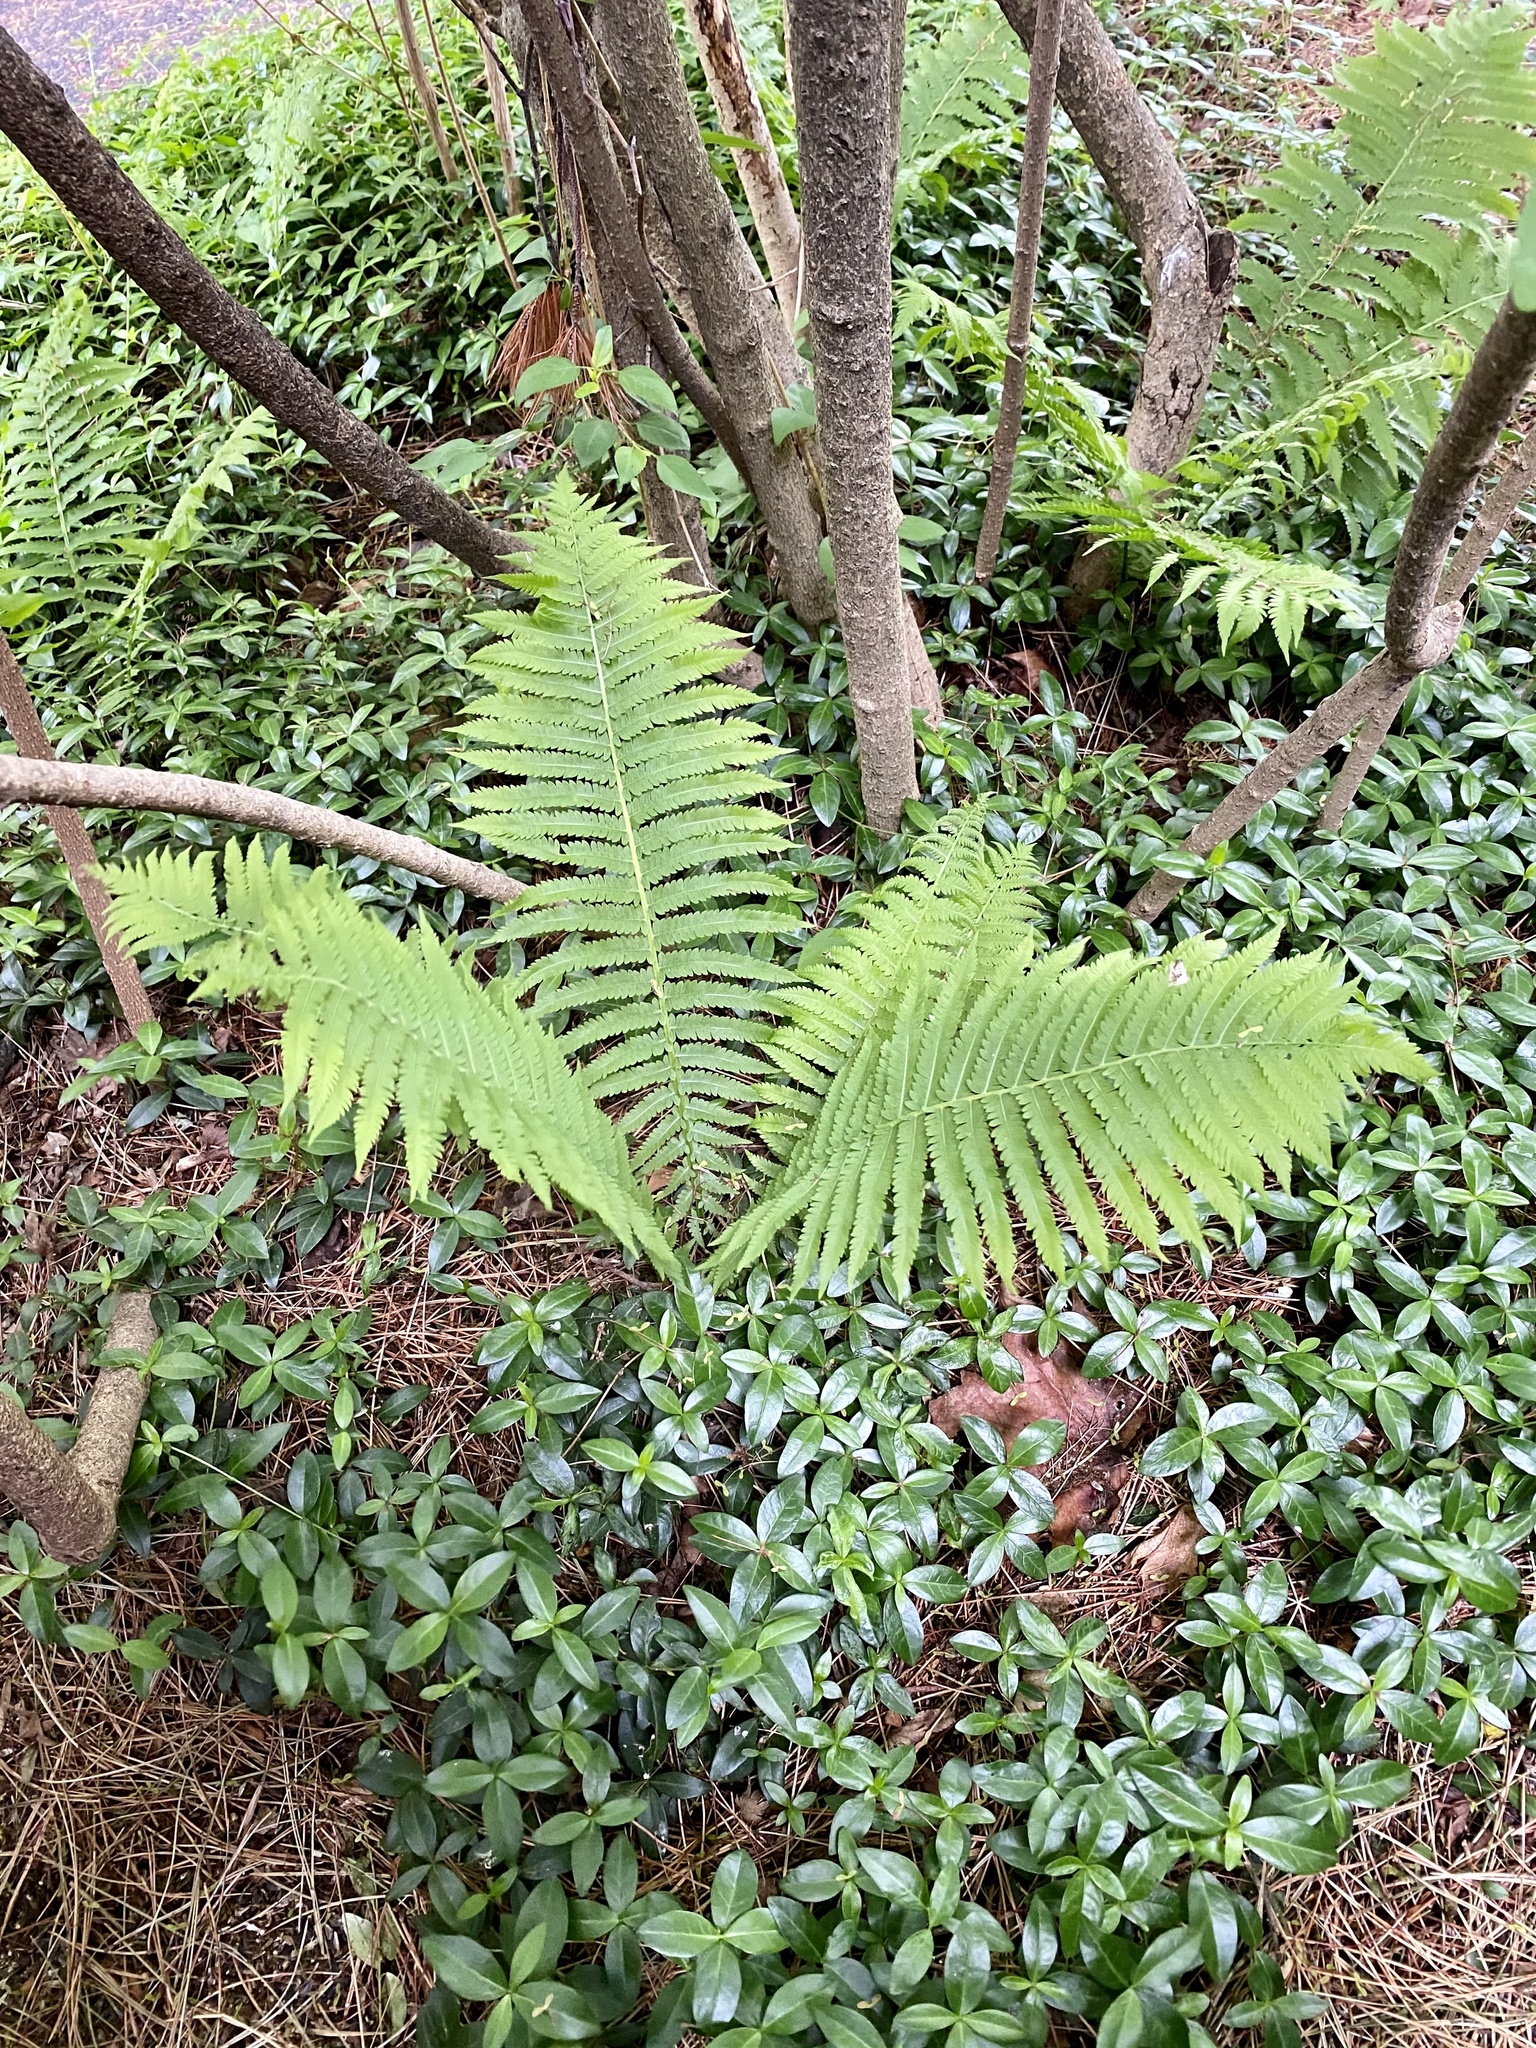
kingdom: Plantae
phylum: Tracheophyta
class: Polypodiopsida
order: Polypodiales
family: Onocleaceae
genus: Matteuccia
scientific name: Matteuccia struthiopteris
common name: Ostrich fern
